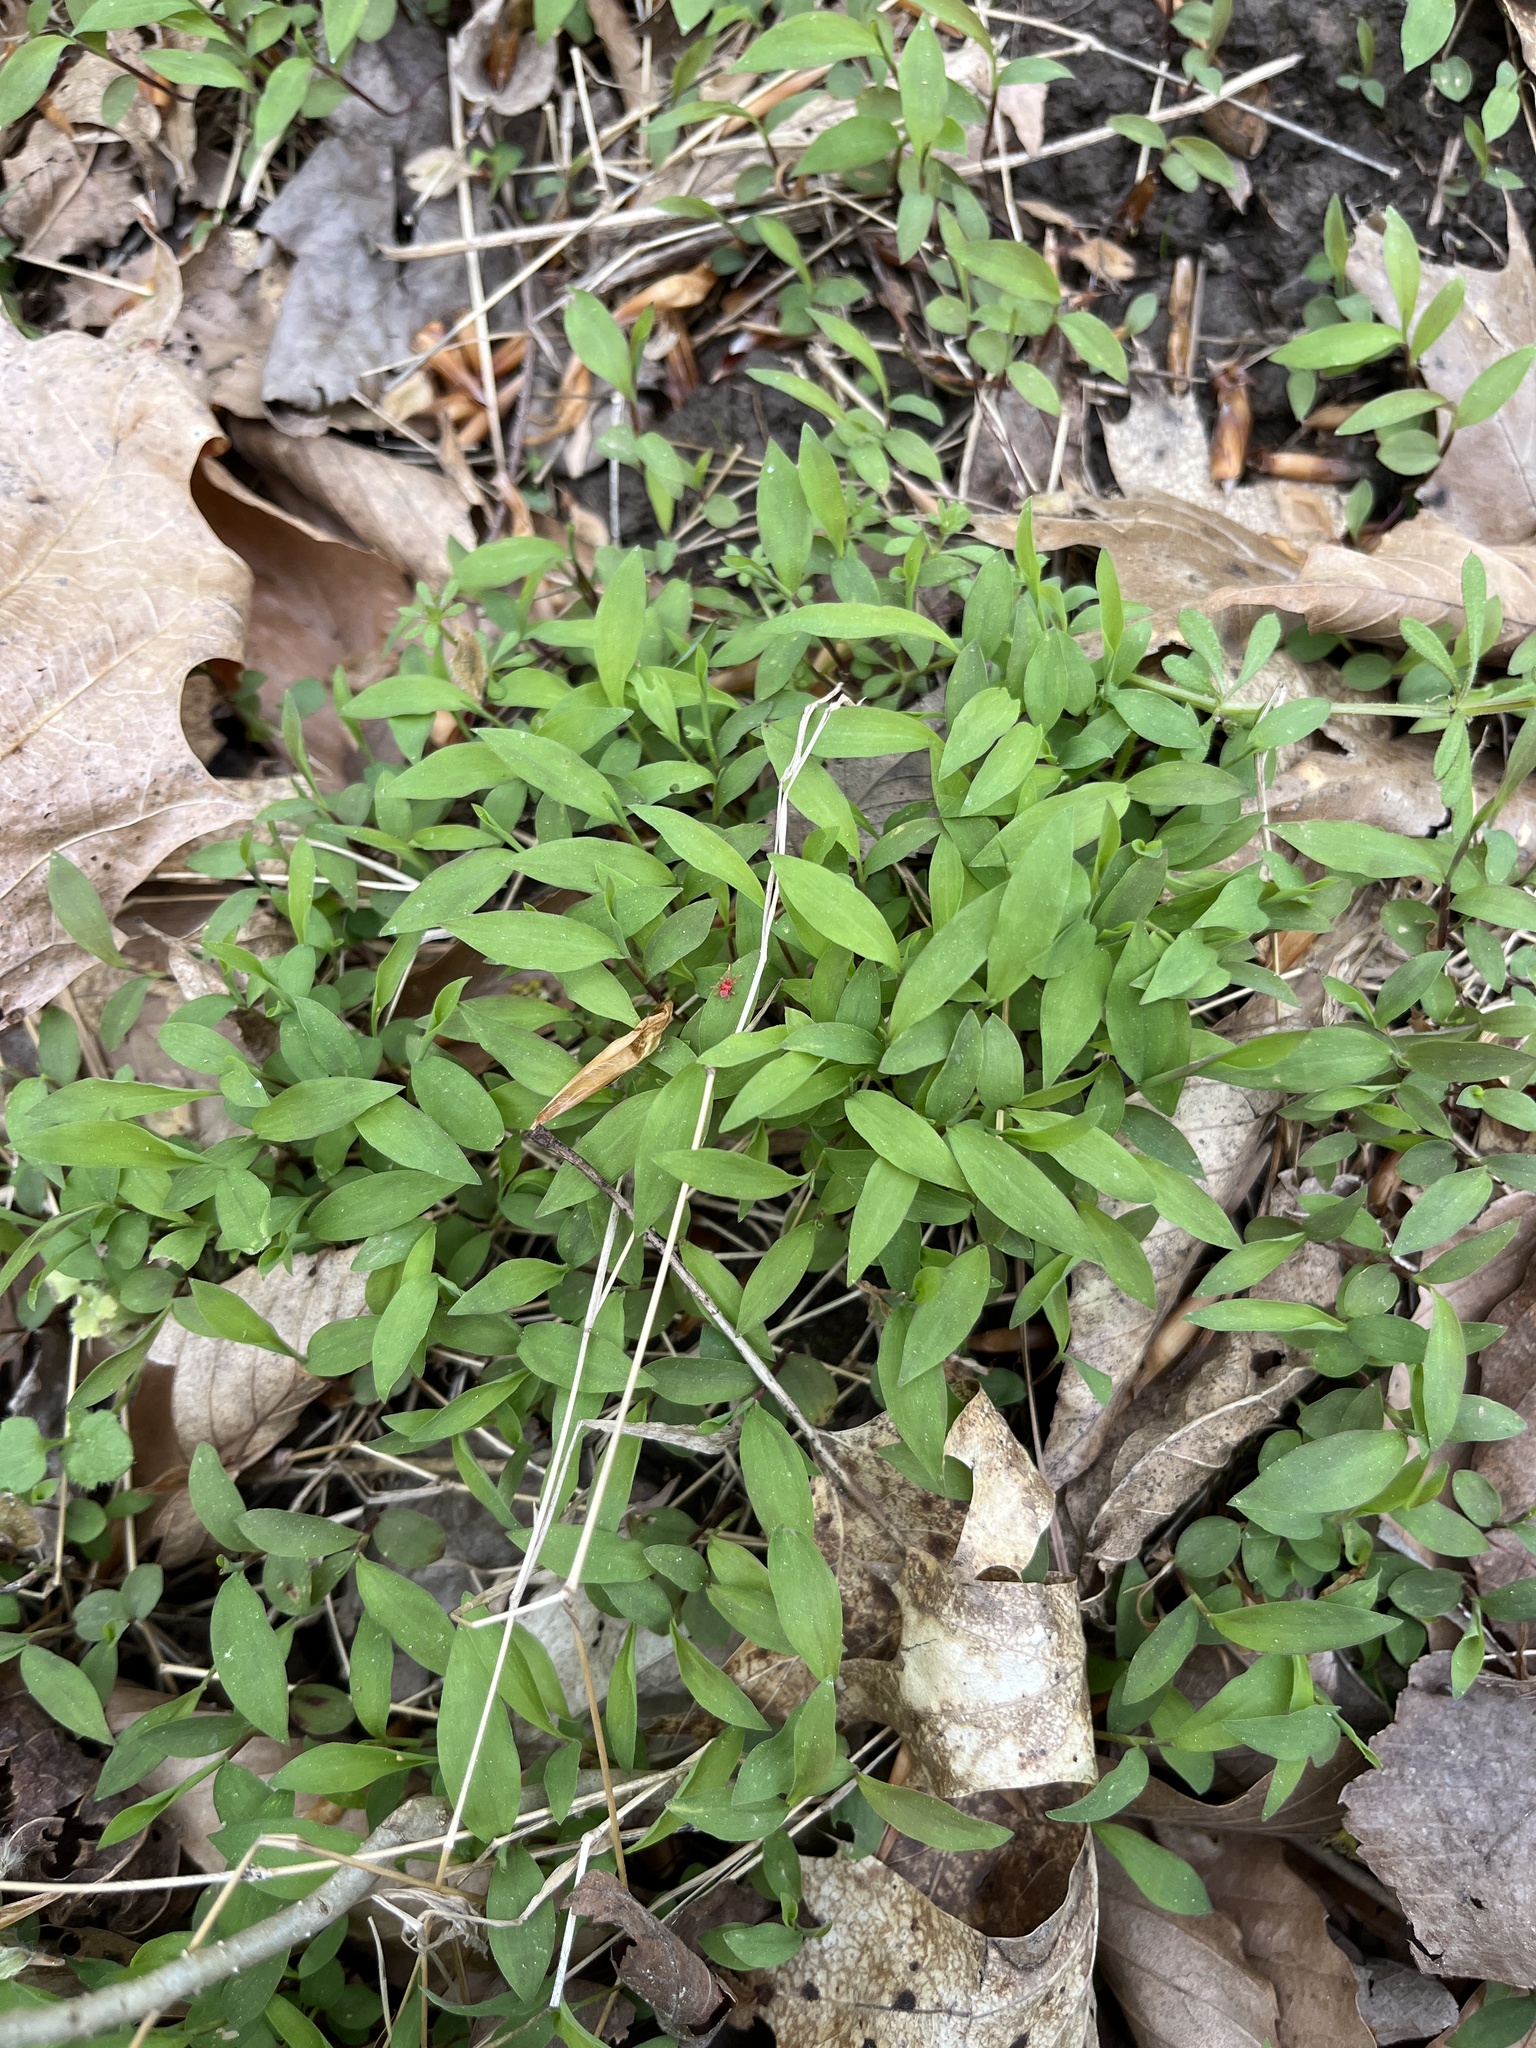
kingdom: Plantae
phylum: Tracheophyta
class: Liliopsida
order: Poales
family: Poaceae
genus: Microstegium
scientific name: Microstegium vimineum
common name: Japanese stiltgrass
